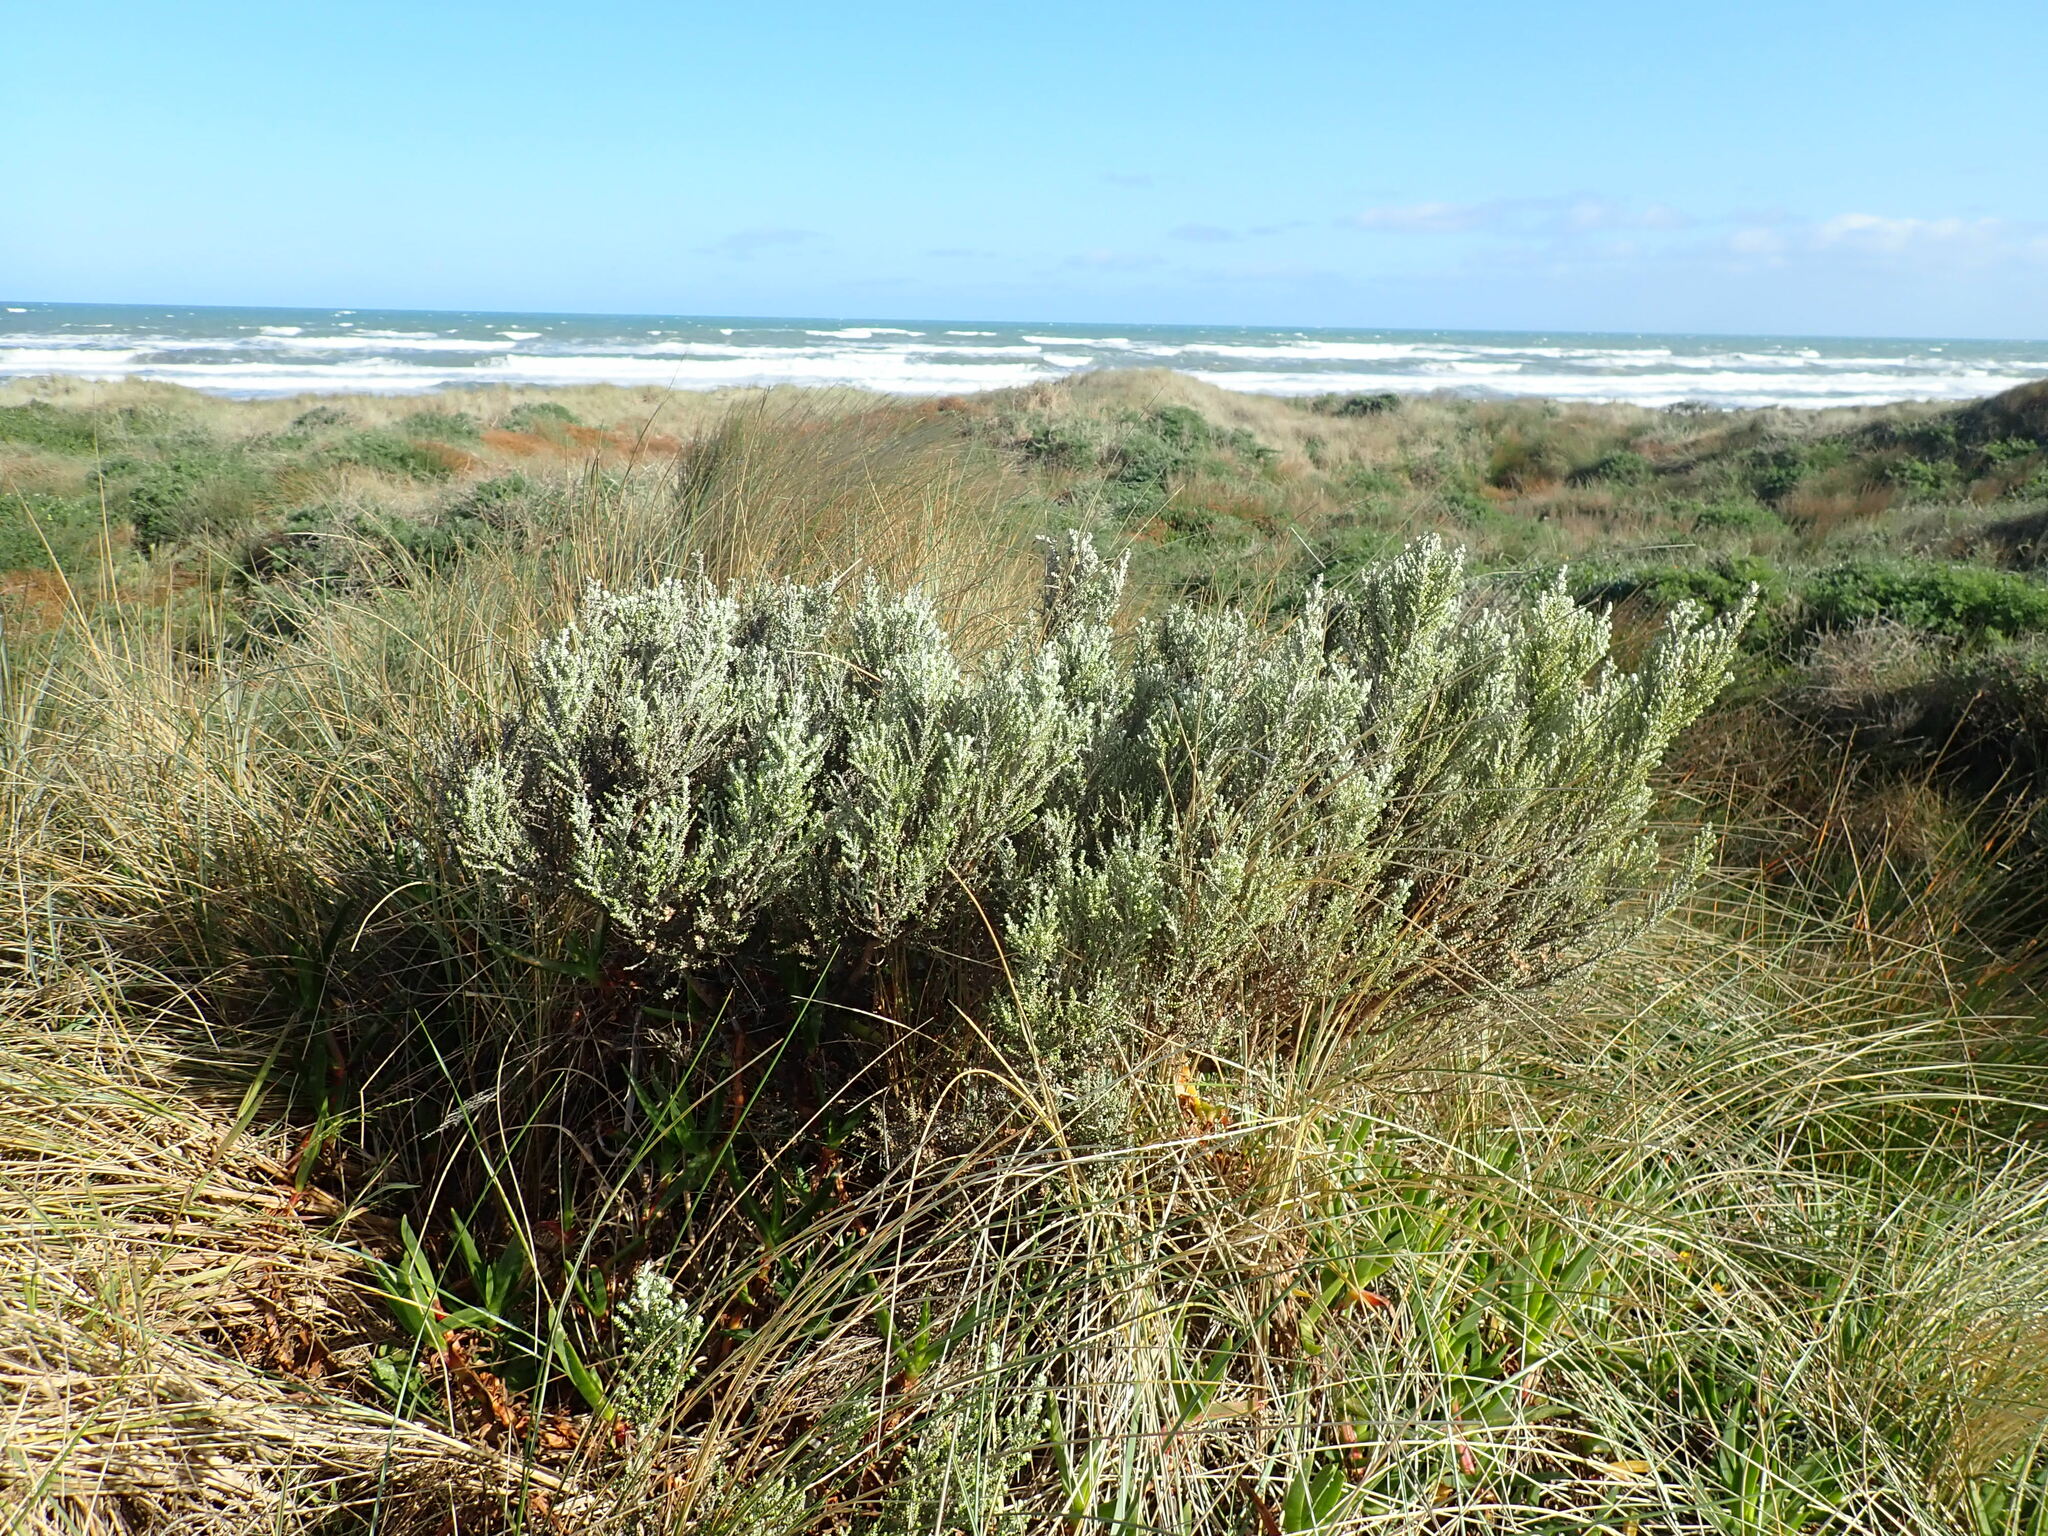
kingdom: Plantae
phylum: Tracheophyta
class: Magnoliopsida
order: Asterales
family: Asteraceae
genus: Ozothamnus
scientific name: Ozothamnus leptophyllus
